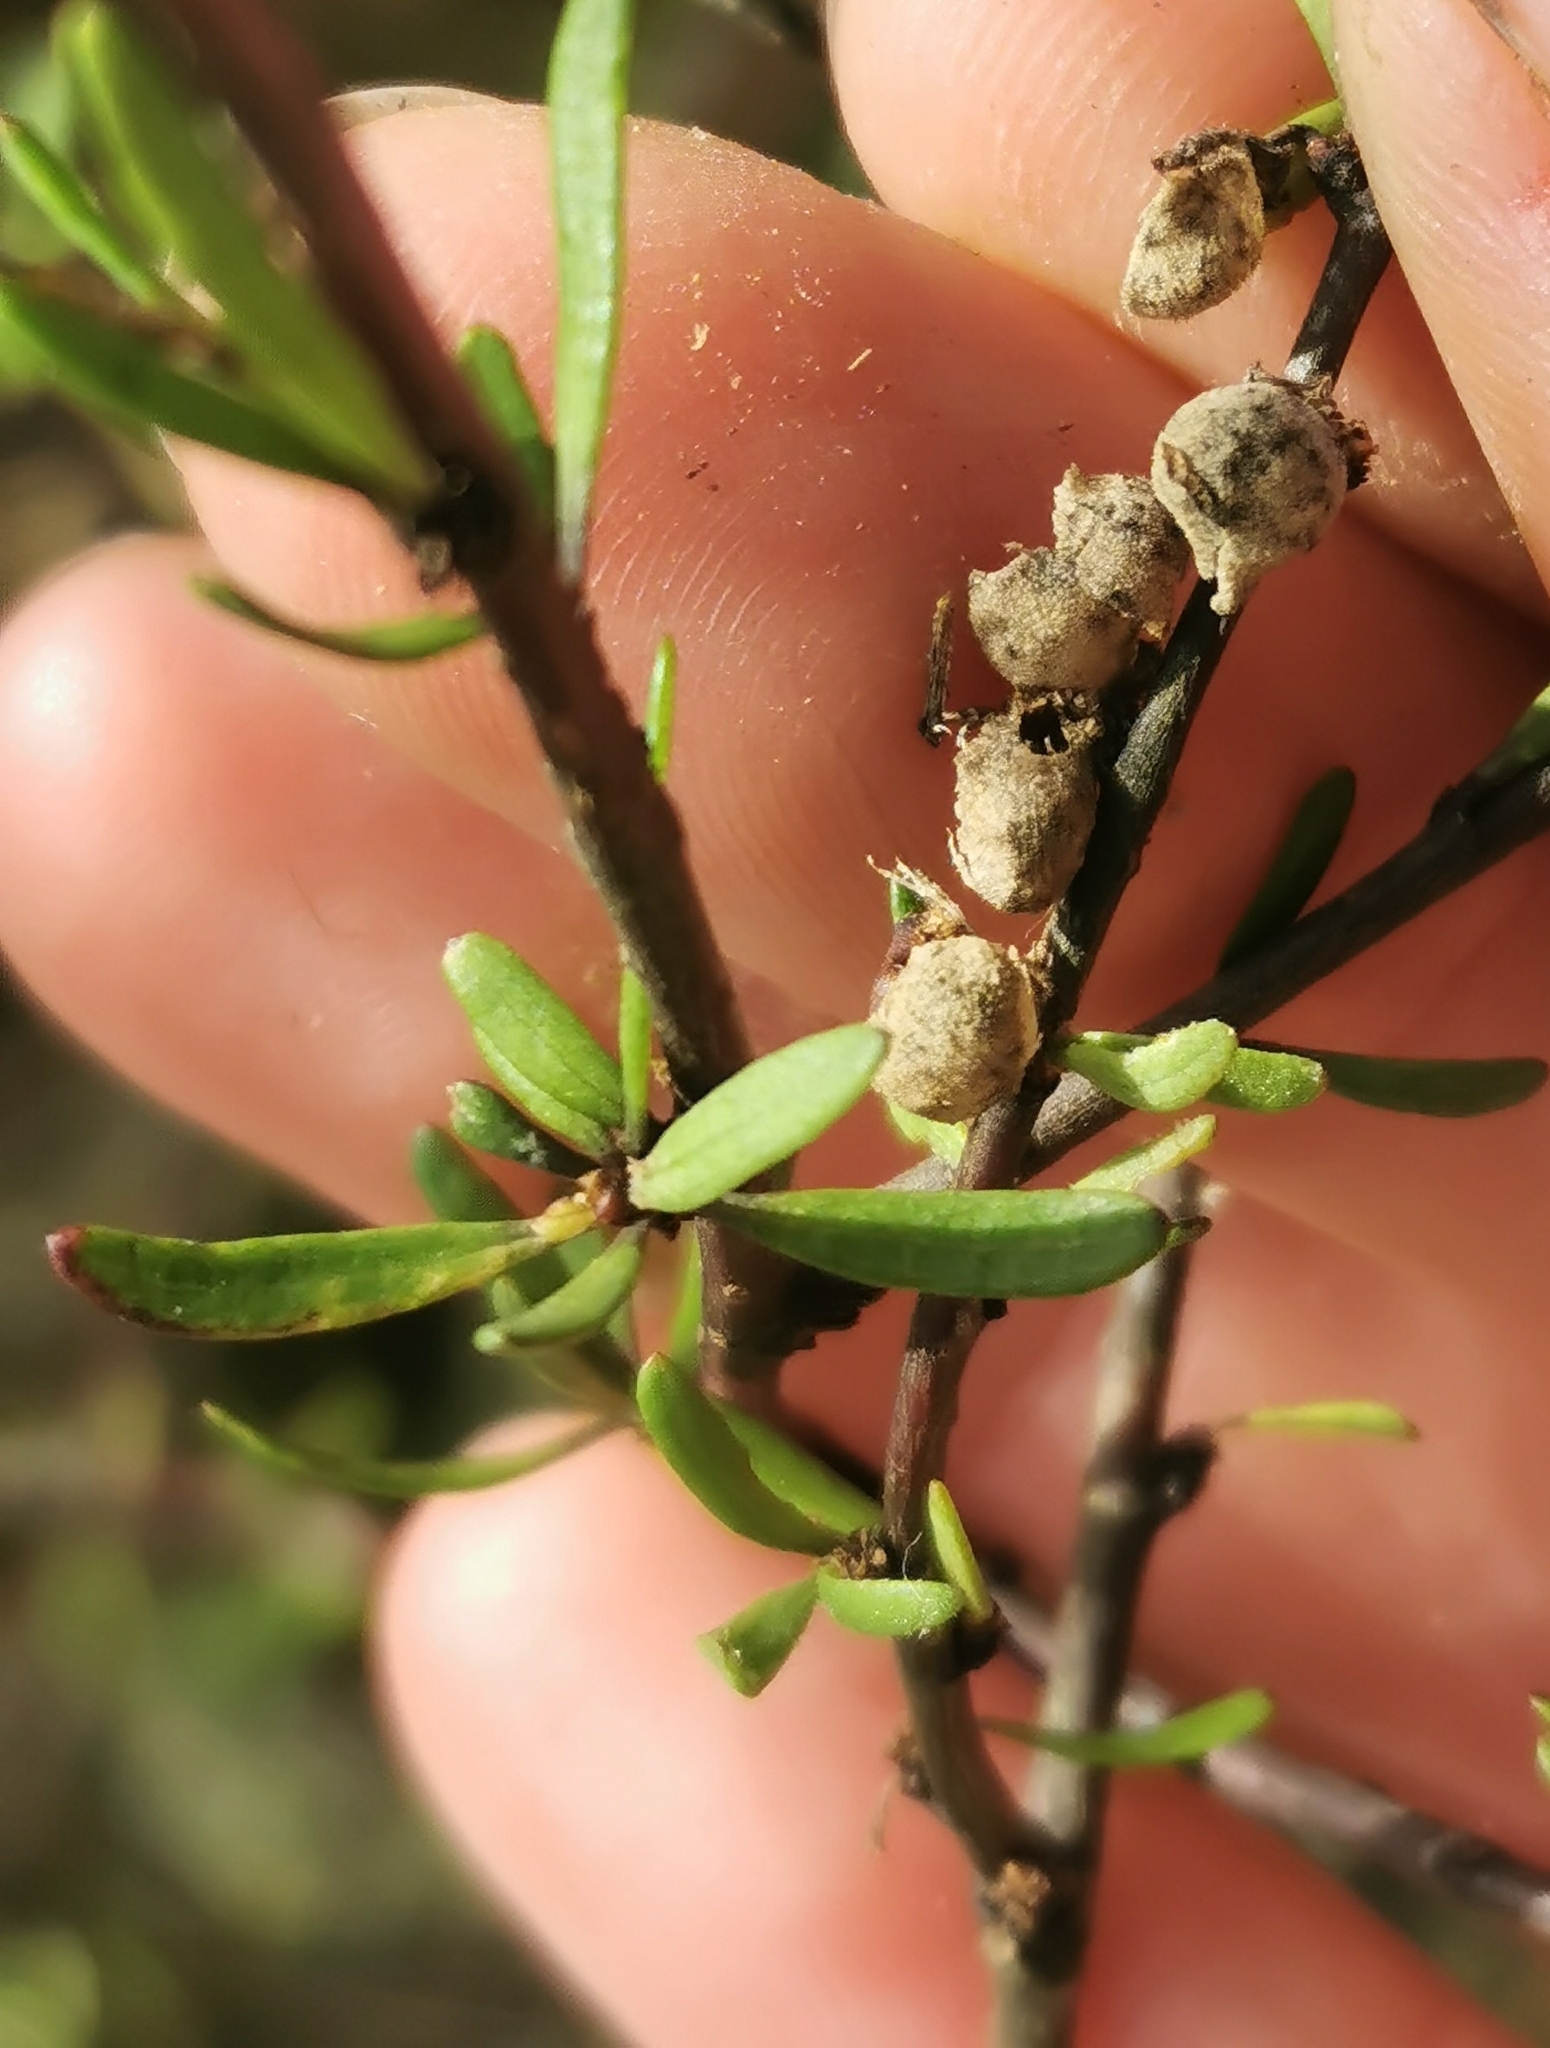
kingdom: Plantae
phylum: Tracheophyta
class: Magnoliopsida
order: Malvales
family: Malvaceae
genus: Plagianthus
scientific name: Plagianthus divaricatus
